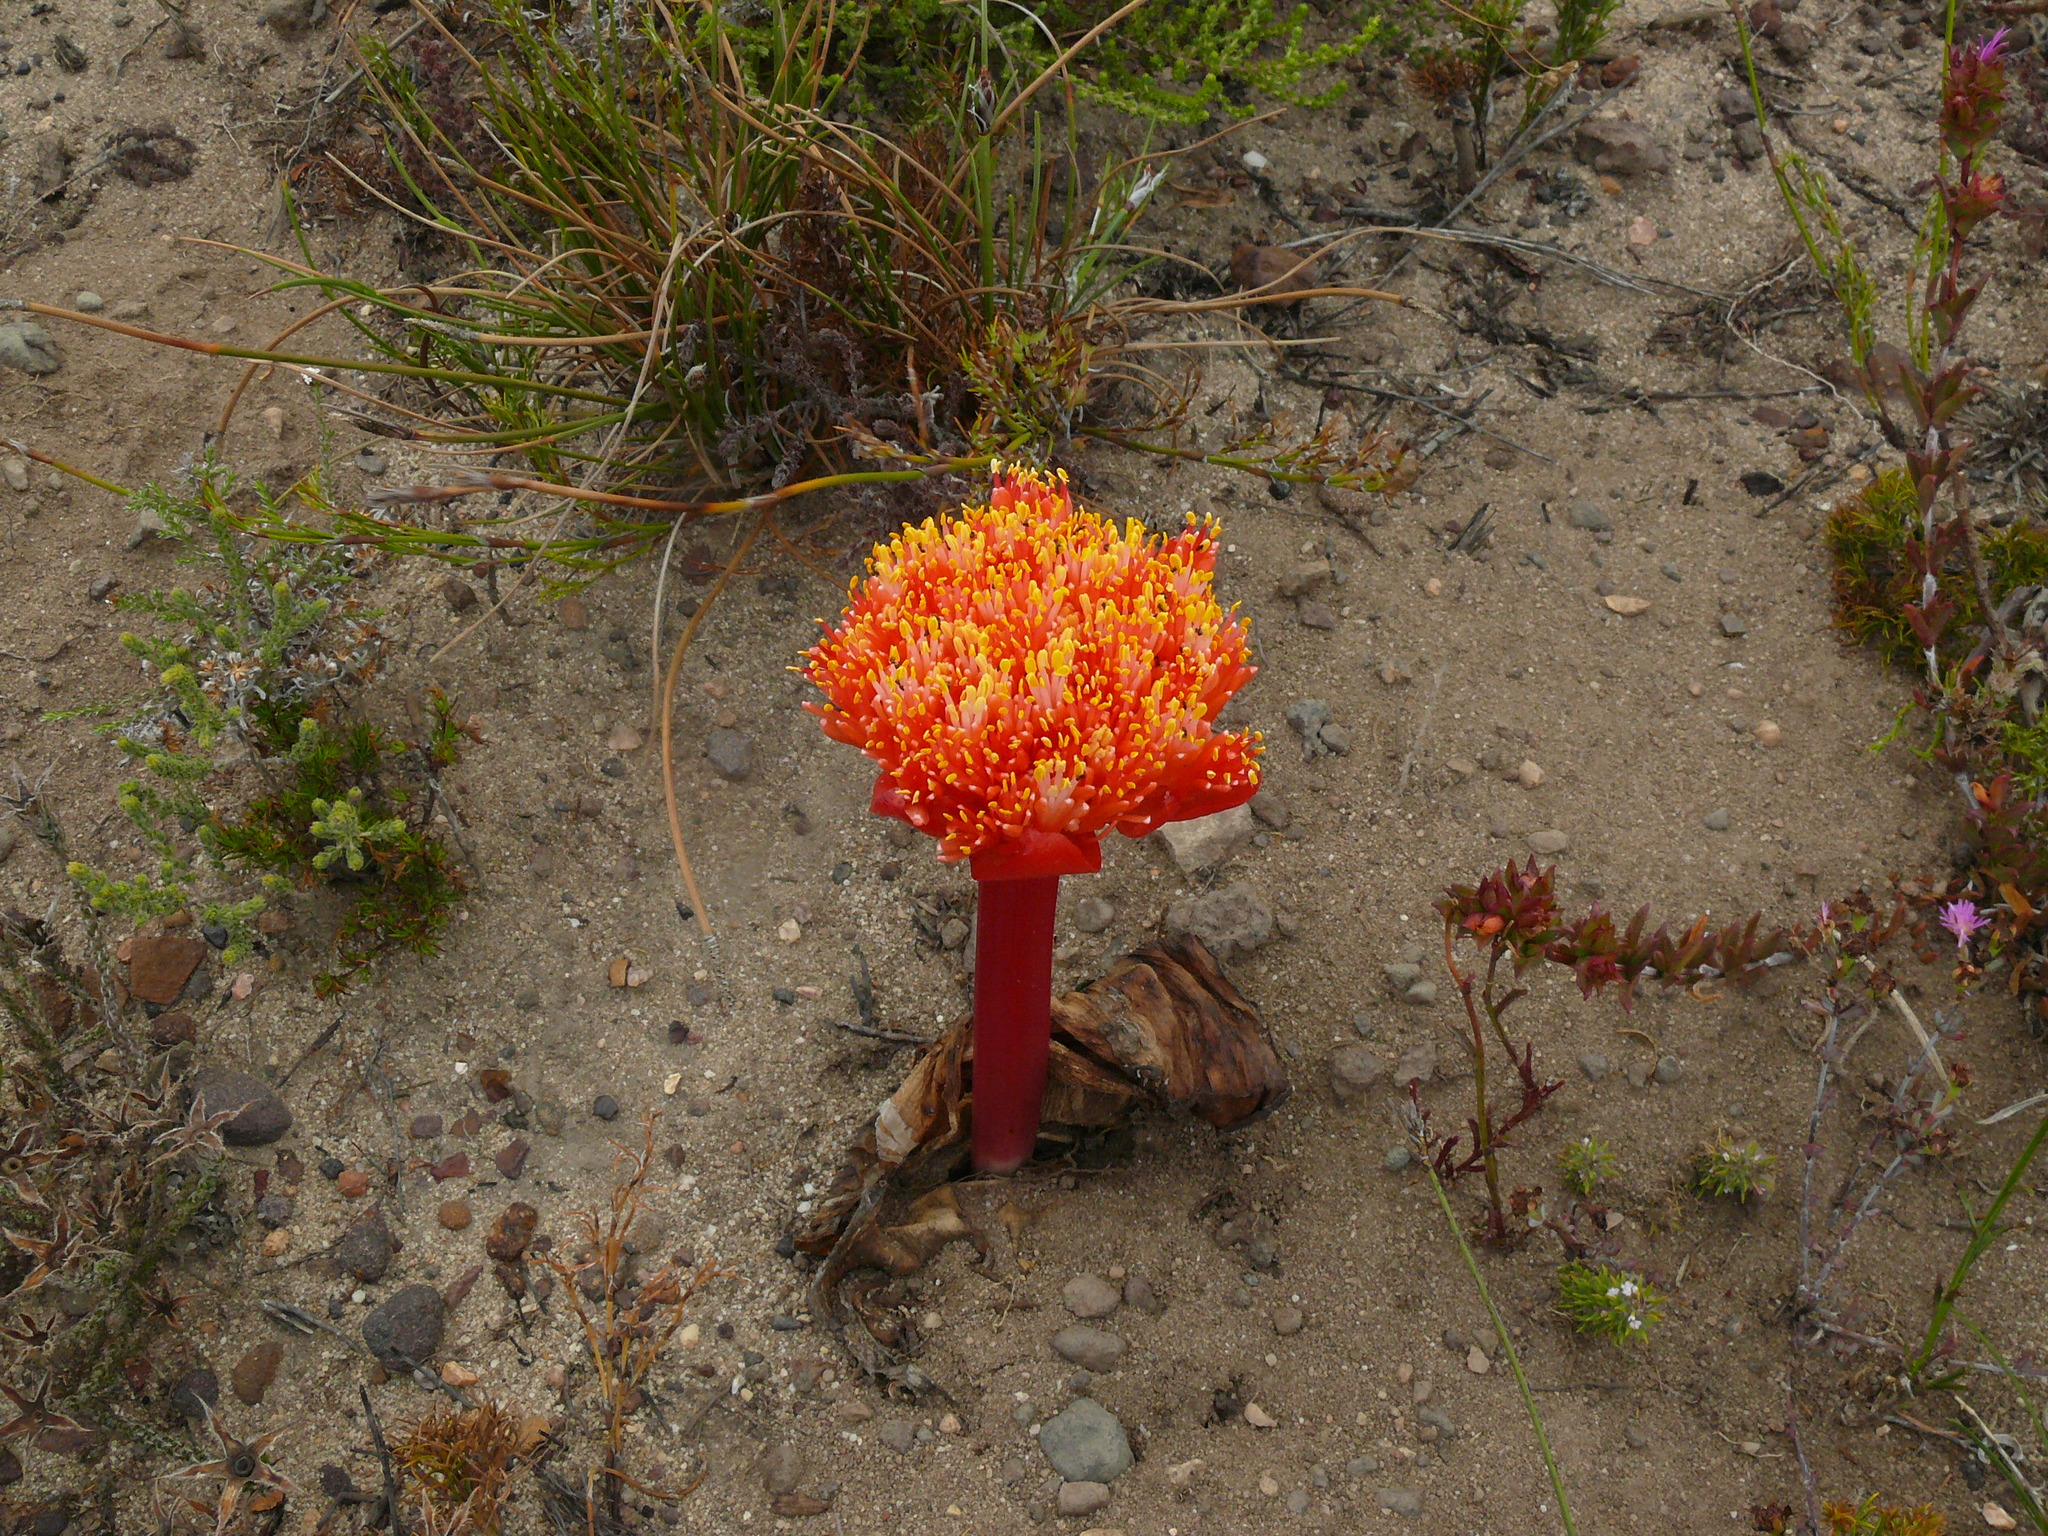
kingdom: Plantae
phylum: Tracheophyta
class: Liliopsida
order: Asparagales
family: Amaryllidaceae
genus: Haemanthus
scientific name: Haemanthus sanguineus
